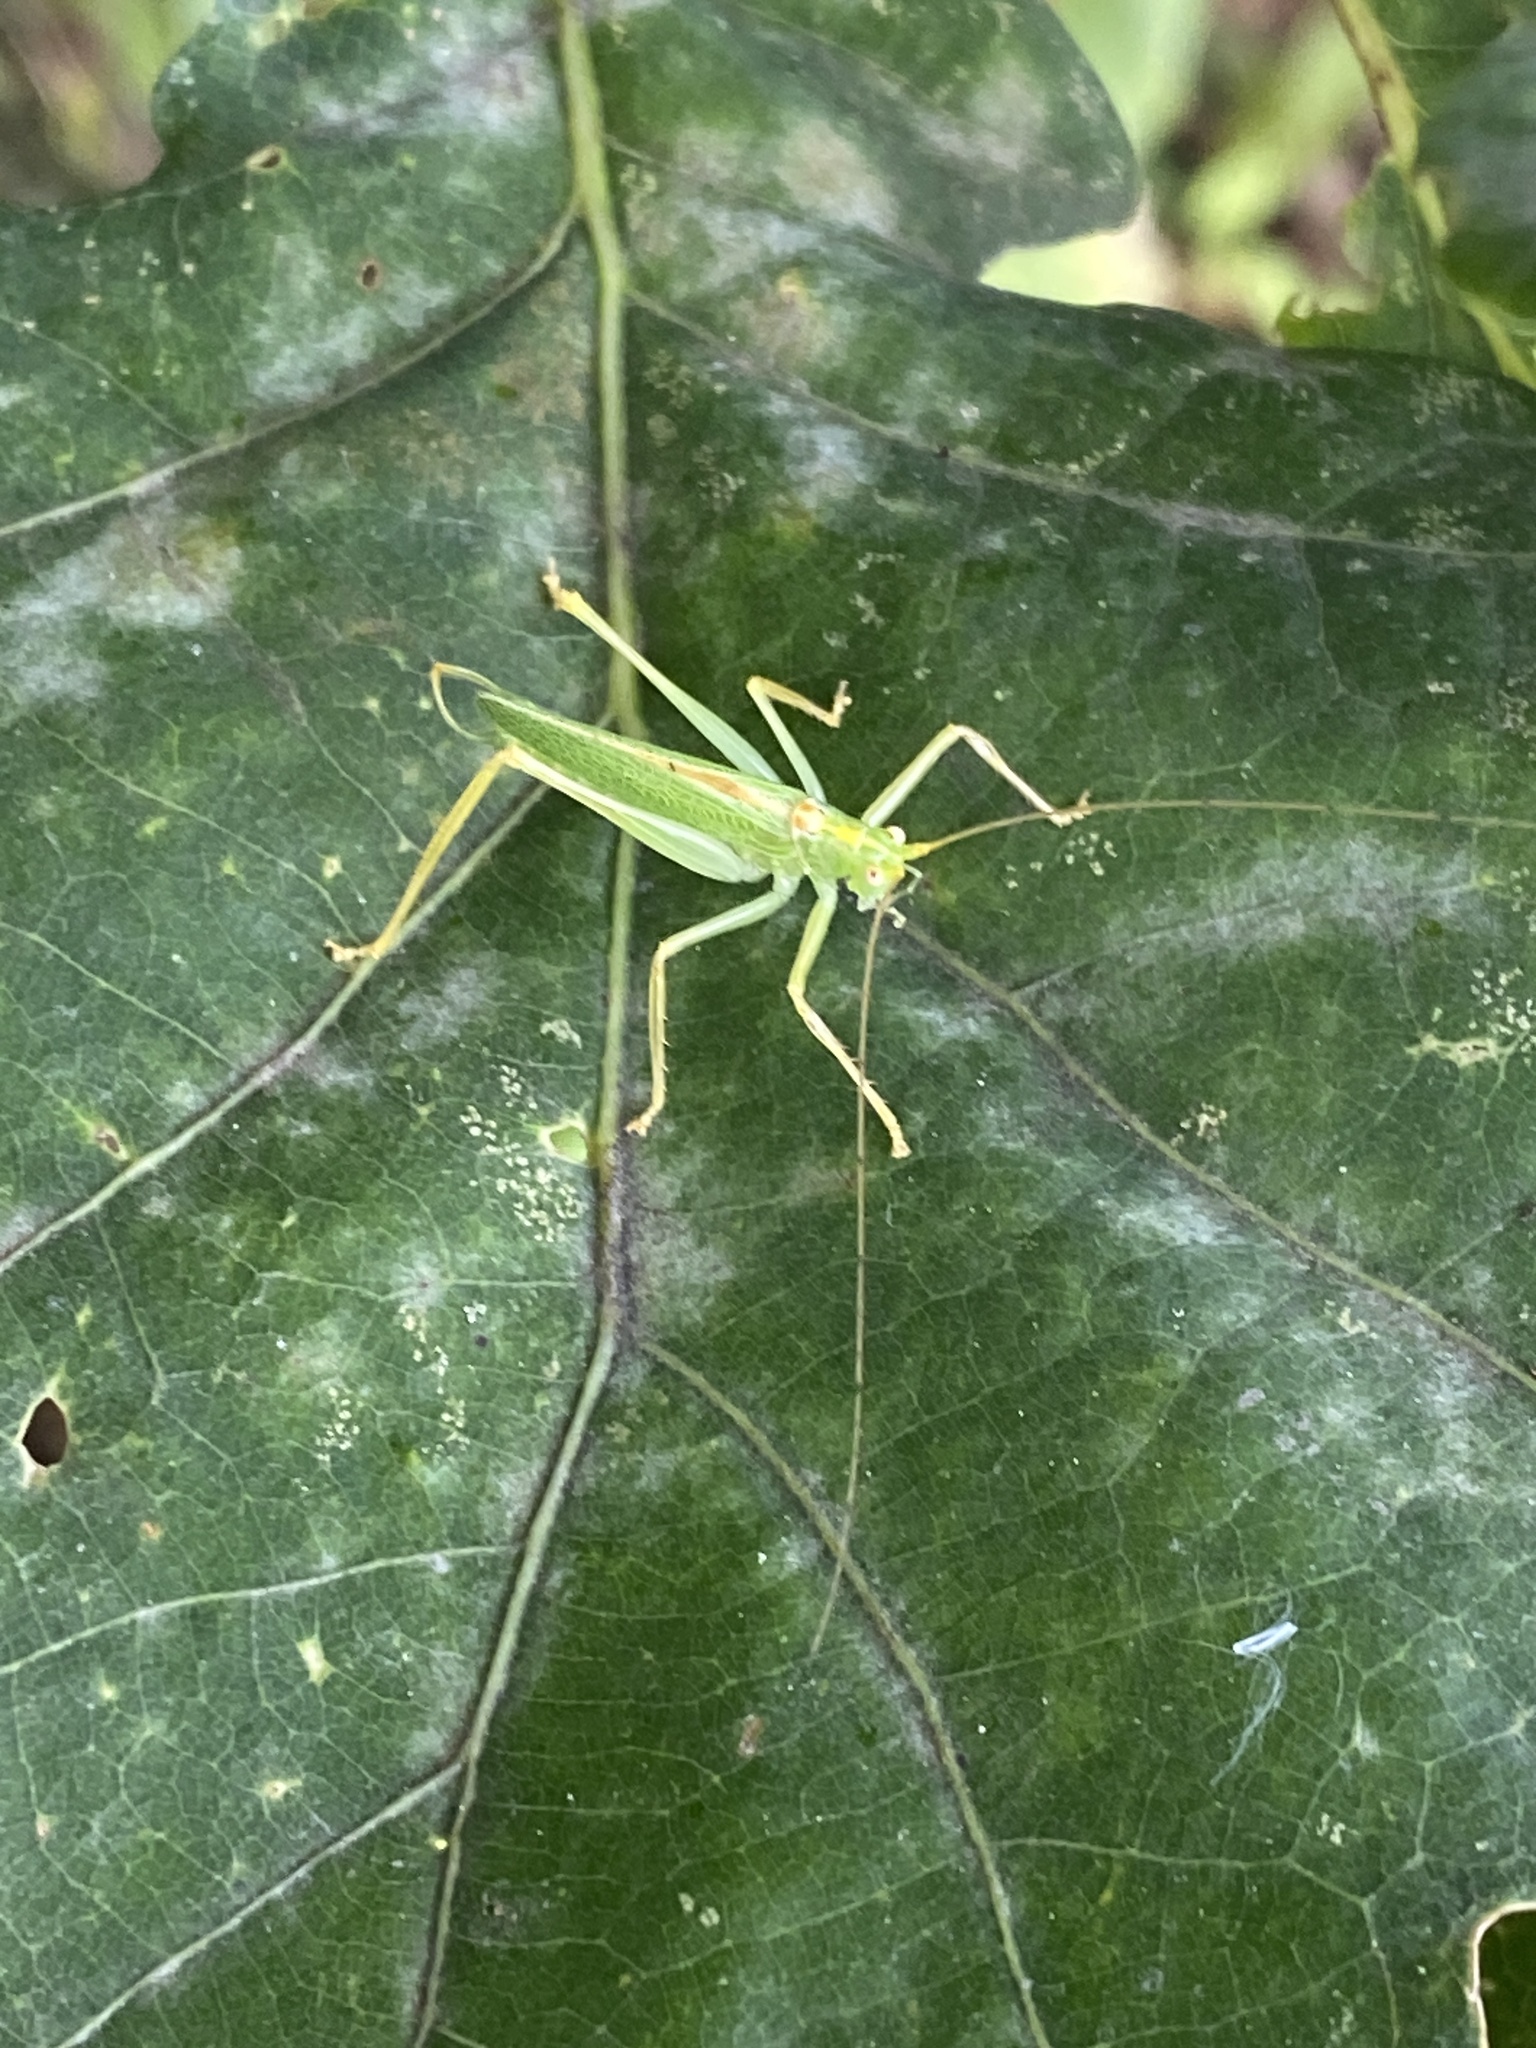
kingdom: Animalia
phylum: Arthropoda
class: Insecta
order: Orthoptera
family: Tettigoniidae
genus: Meconema
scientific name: Meconema thalassinum
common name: Oak bush-cricket
